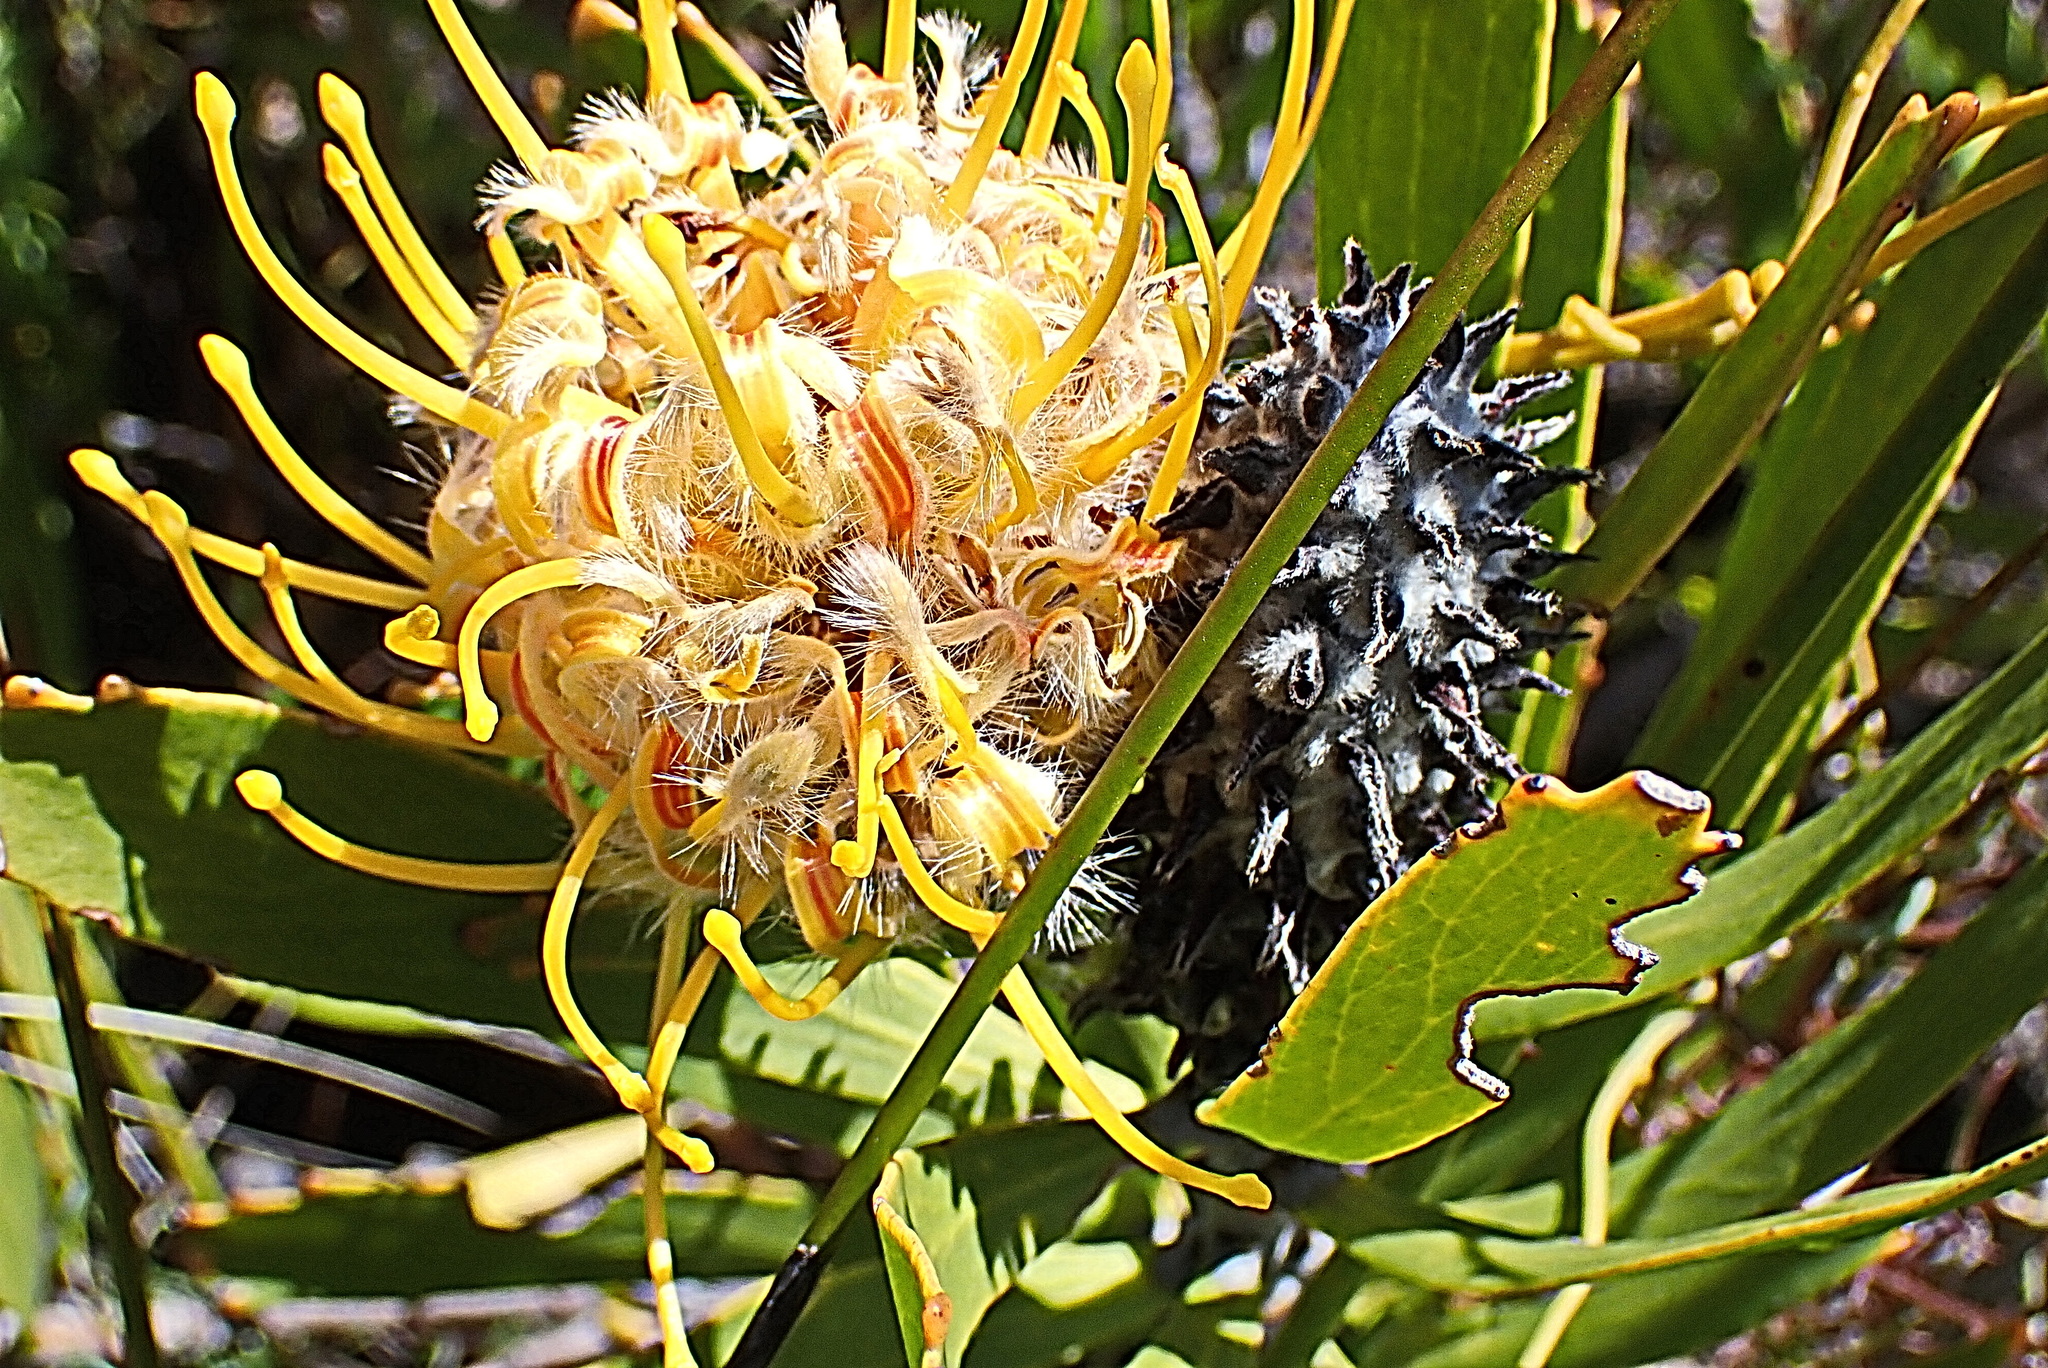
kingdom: Plantae
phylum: Tracheophyta
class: Magnoliopsida
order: Proteales
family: Proteaceae
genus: Leucospermum
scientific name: Leucospermum cuneiforme
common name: Common pincushion
